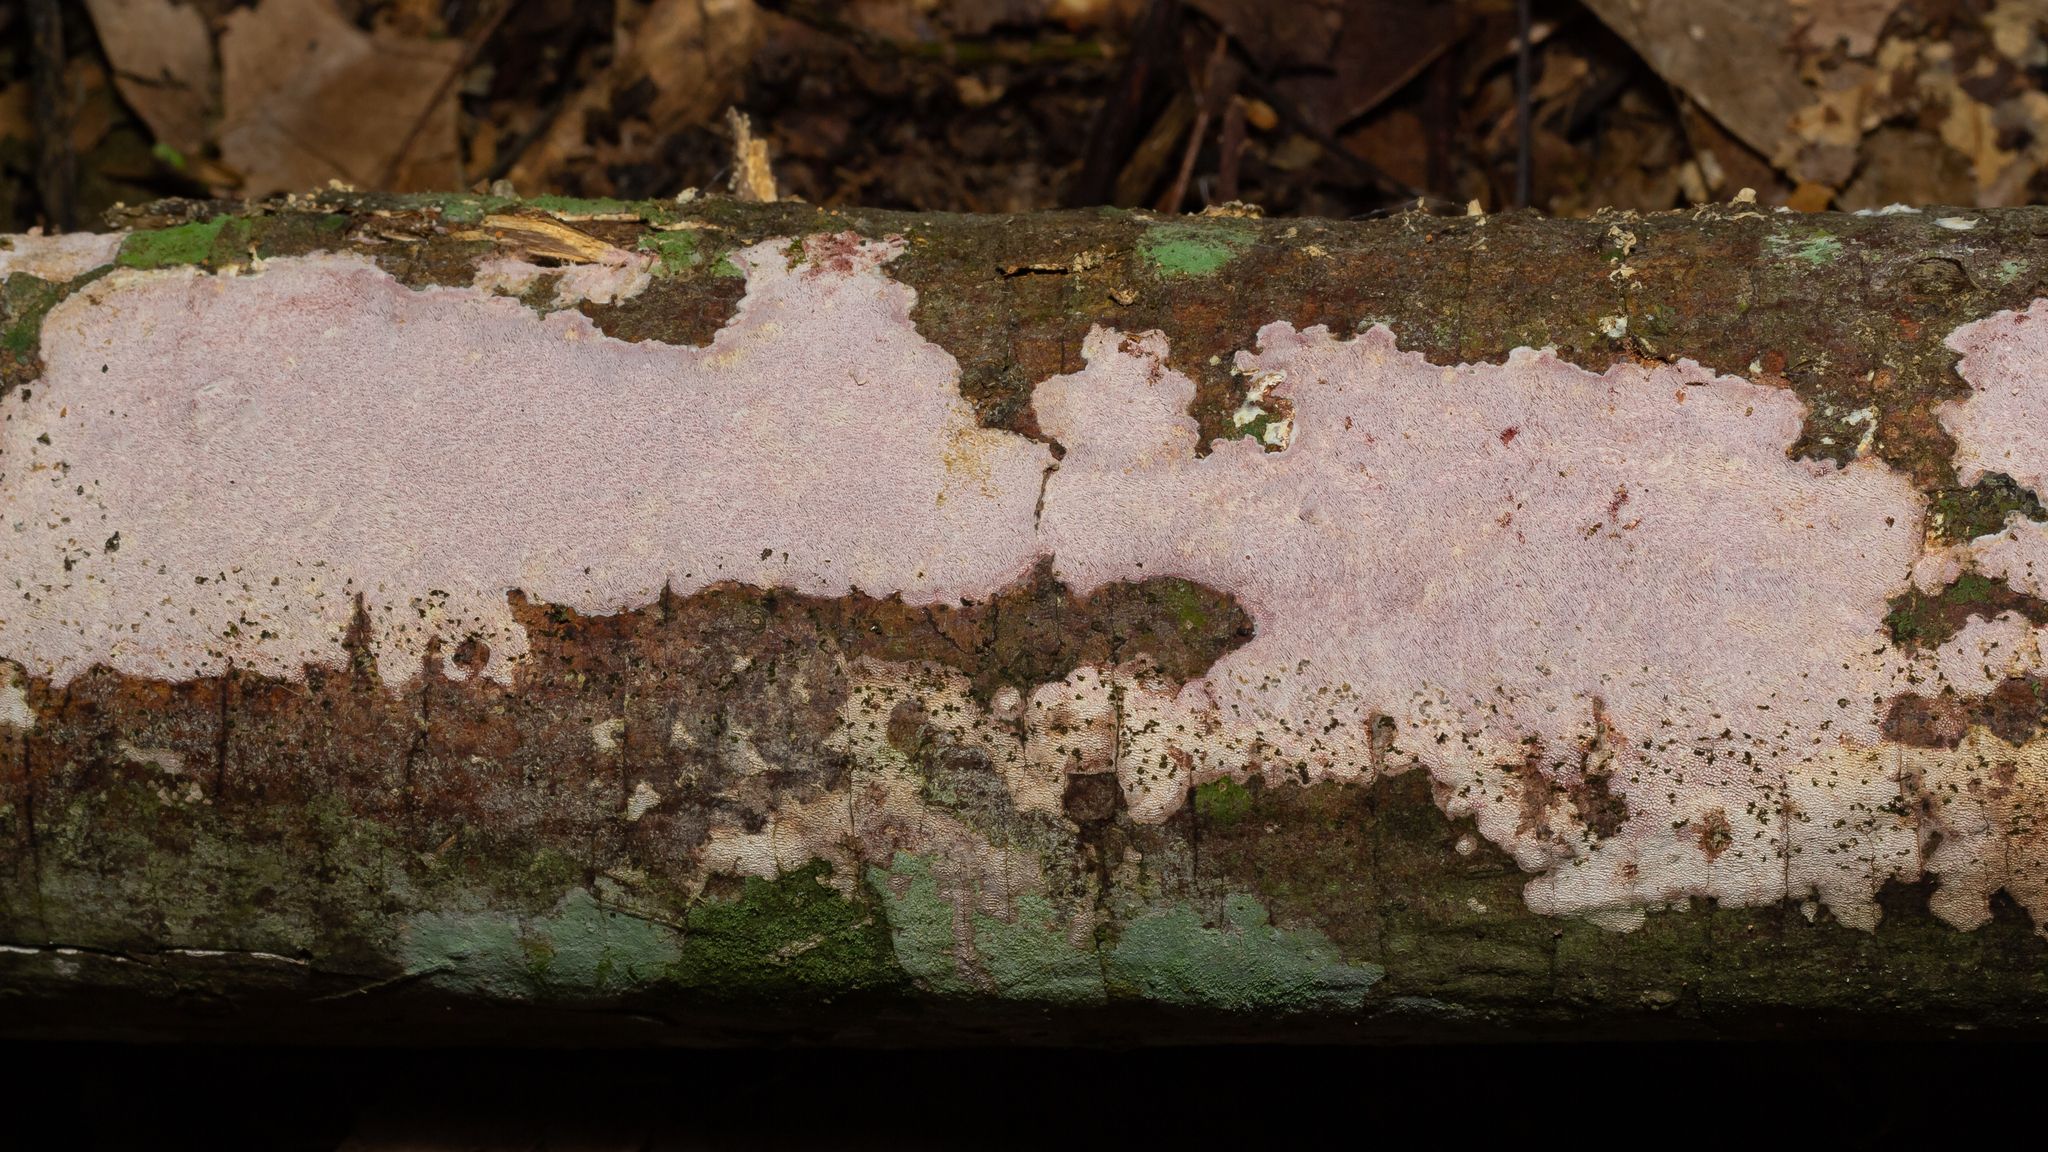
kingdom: Fungi
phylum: Basidiomycota
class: Agaricomycetes
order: Polyporales
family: Polyporaceae
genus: Grammothele
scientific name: Grammothele subargentea
